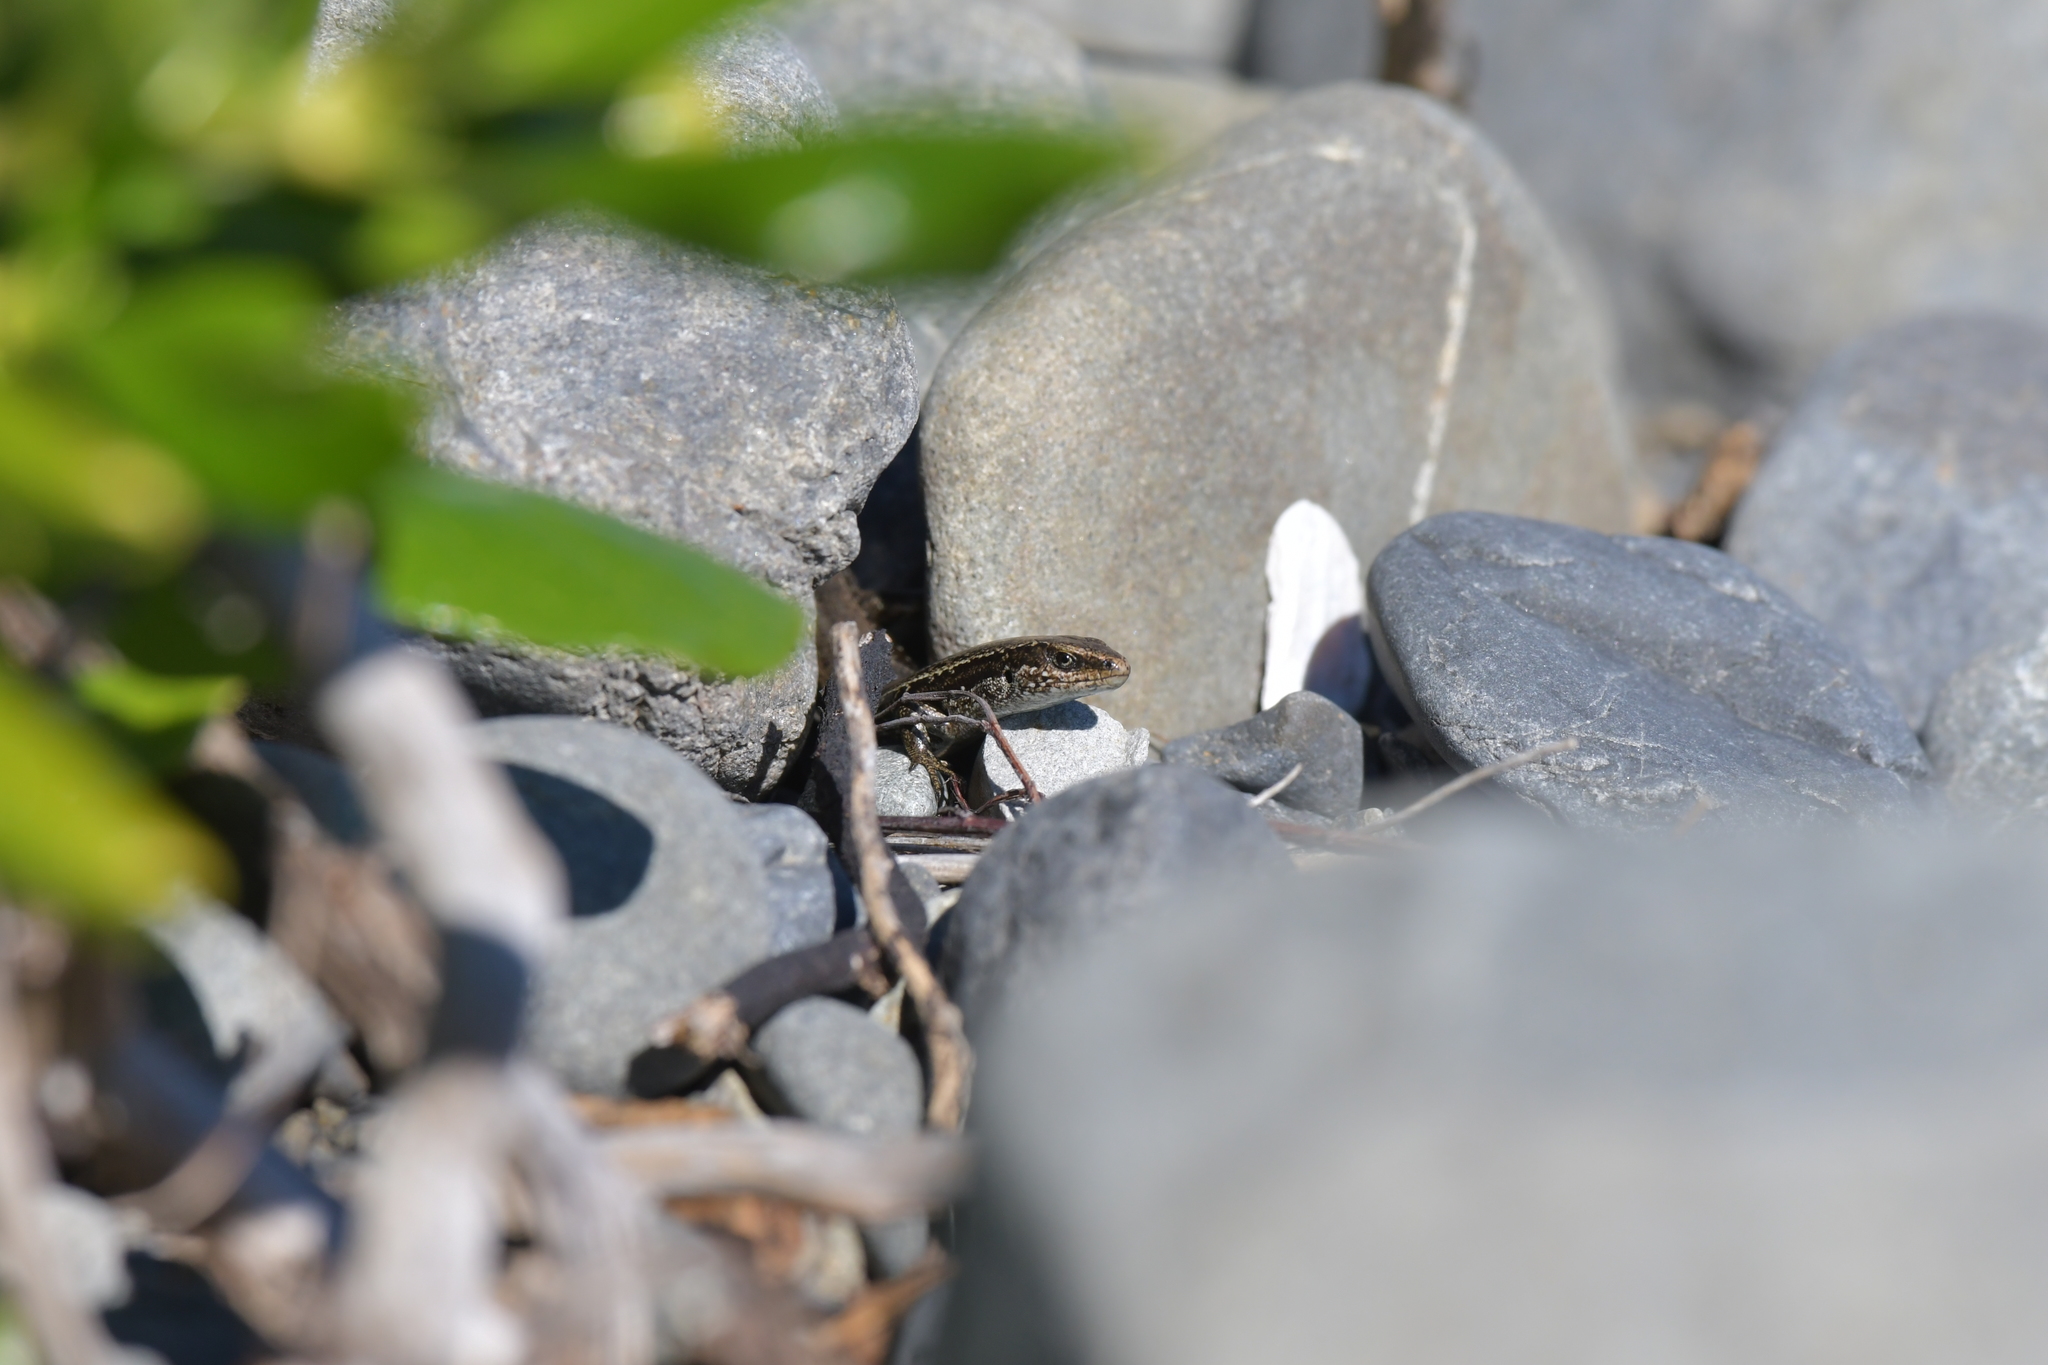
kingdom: Animalia
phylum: Chordata
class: Squamata
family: Scincidae
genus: Oligosoma
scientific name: Oligosoma polychroma
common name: Common new zealand skink
